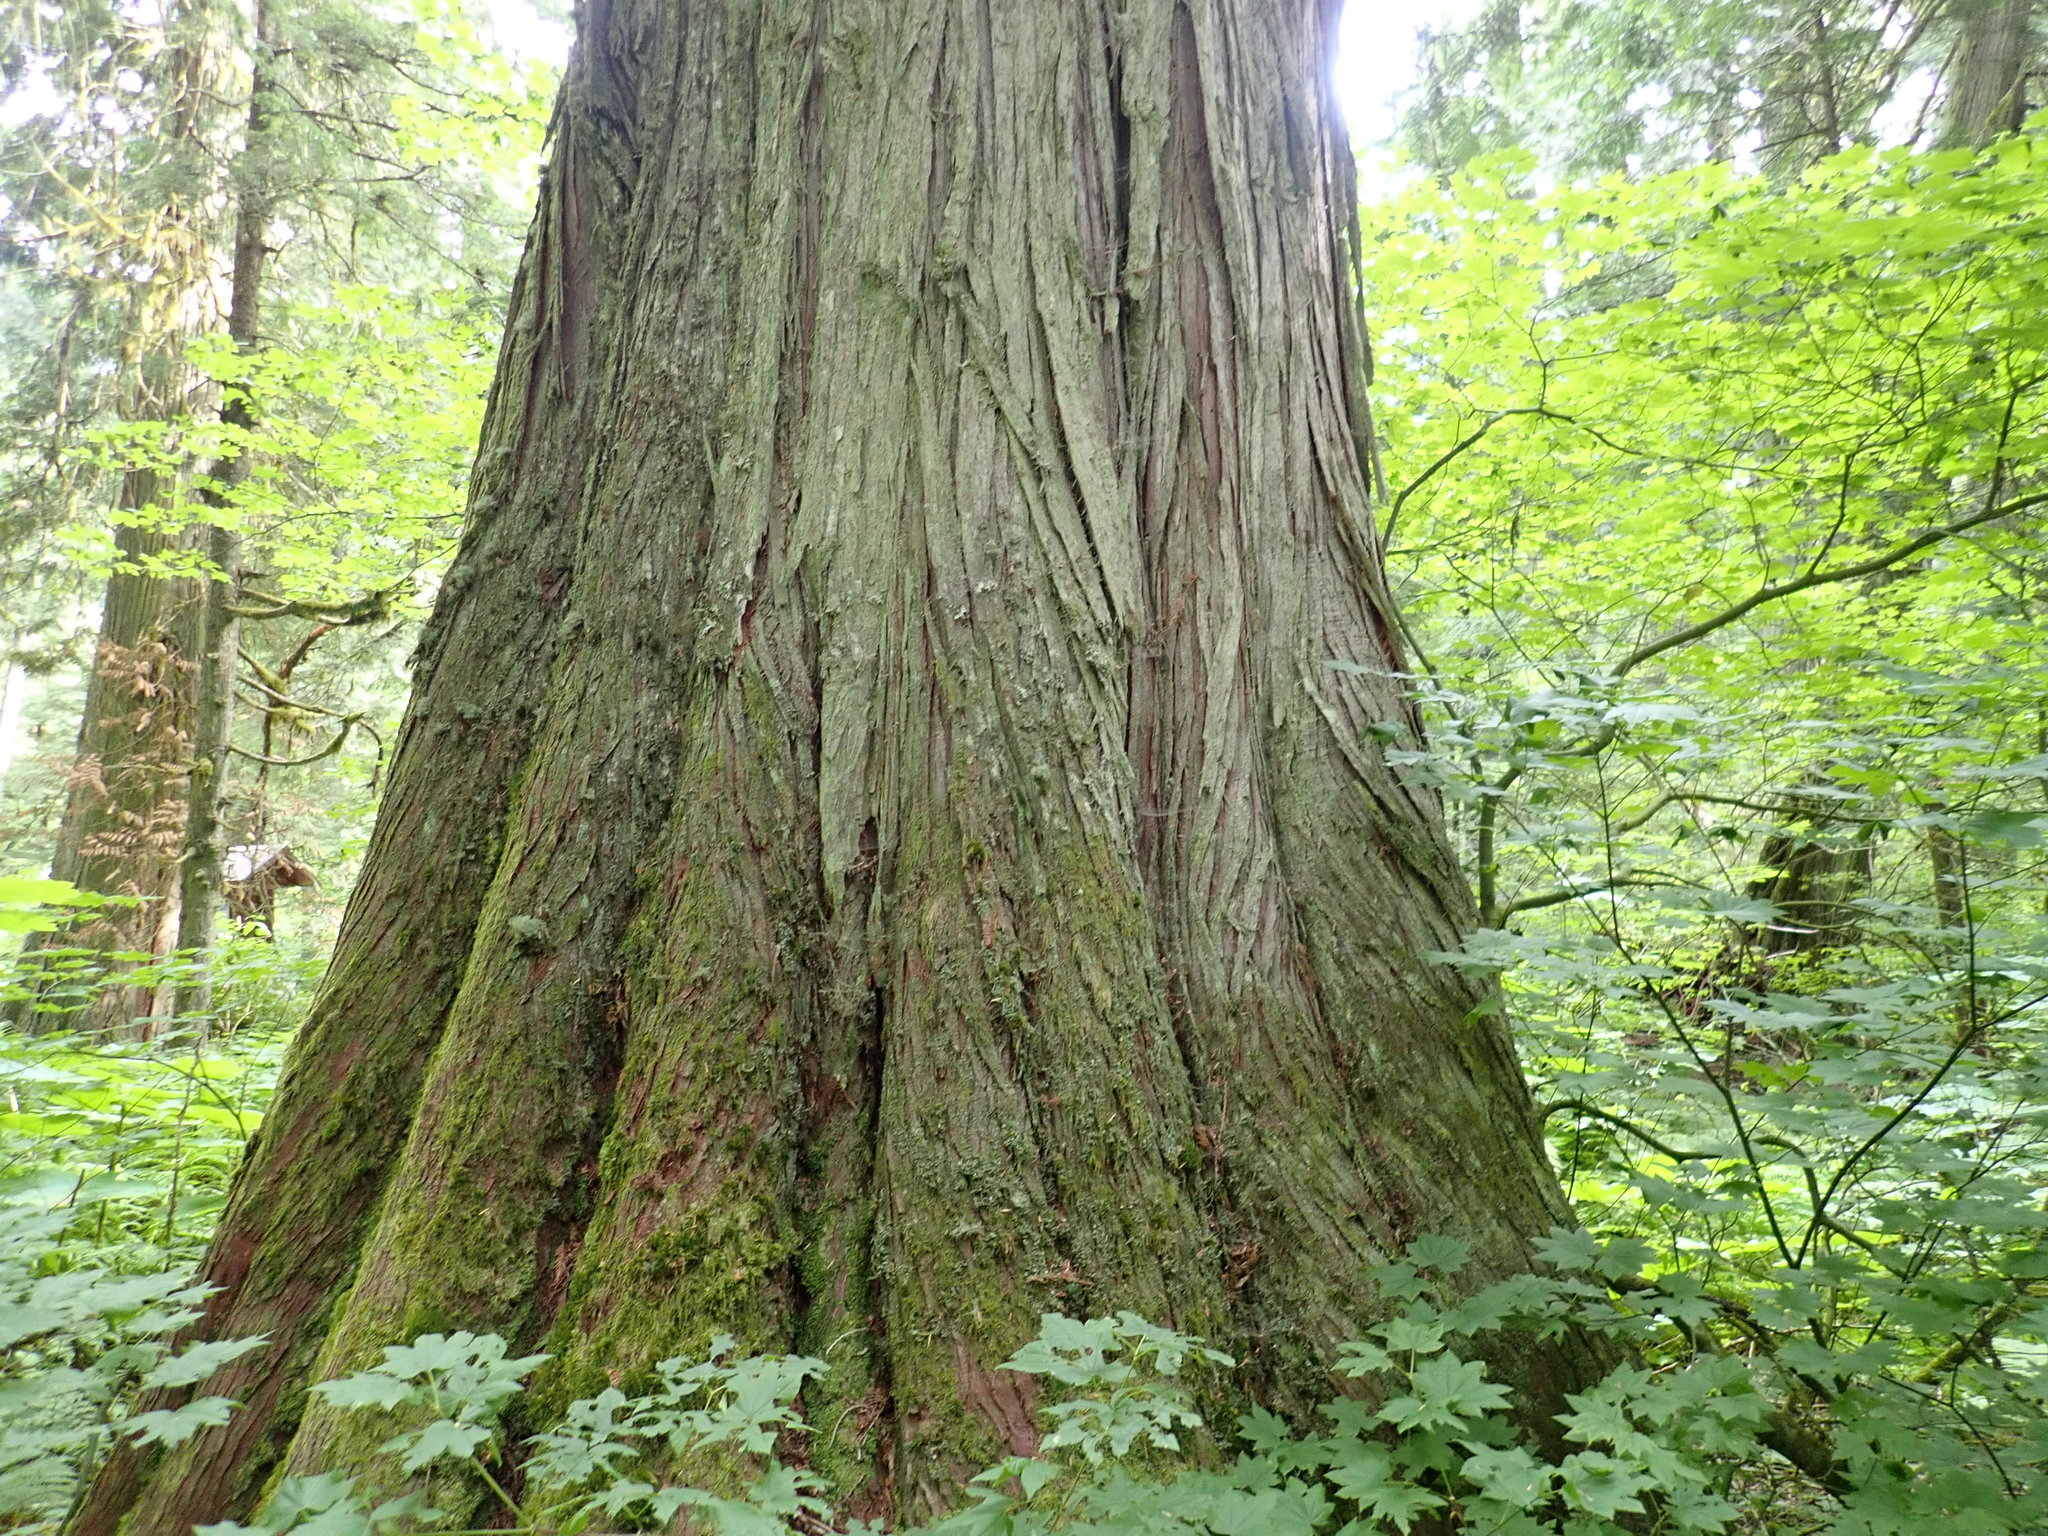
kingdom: Plantae
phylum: Tracheophyta
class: Pinopsida
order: Pinales
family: Cupressaceae
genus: Thuja
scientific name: Thuja plicata
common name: Western red-cedar
